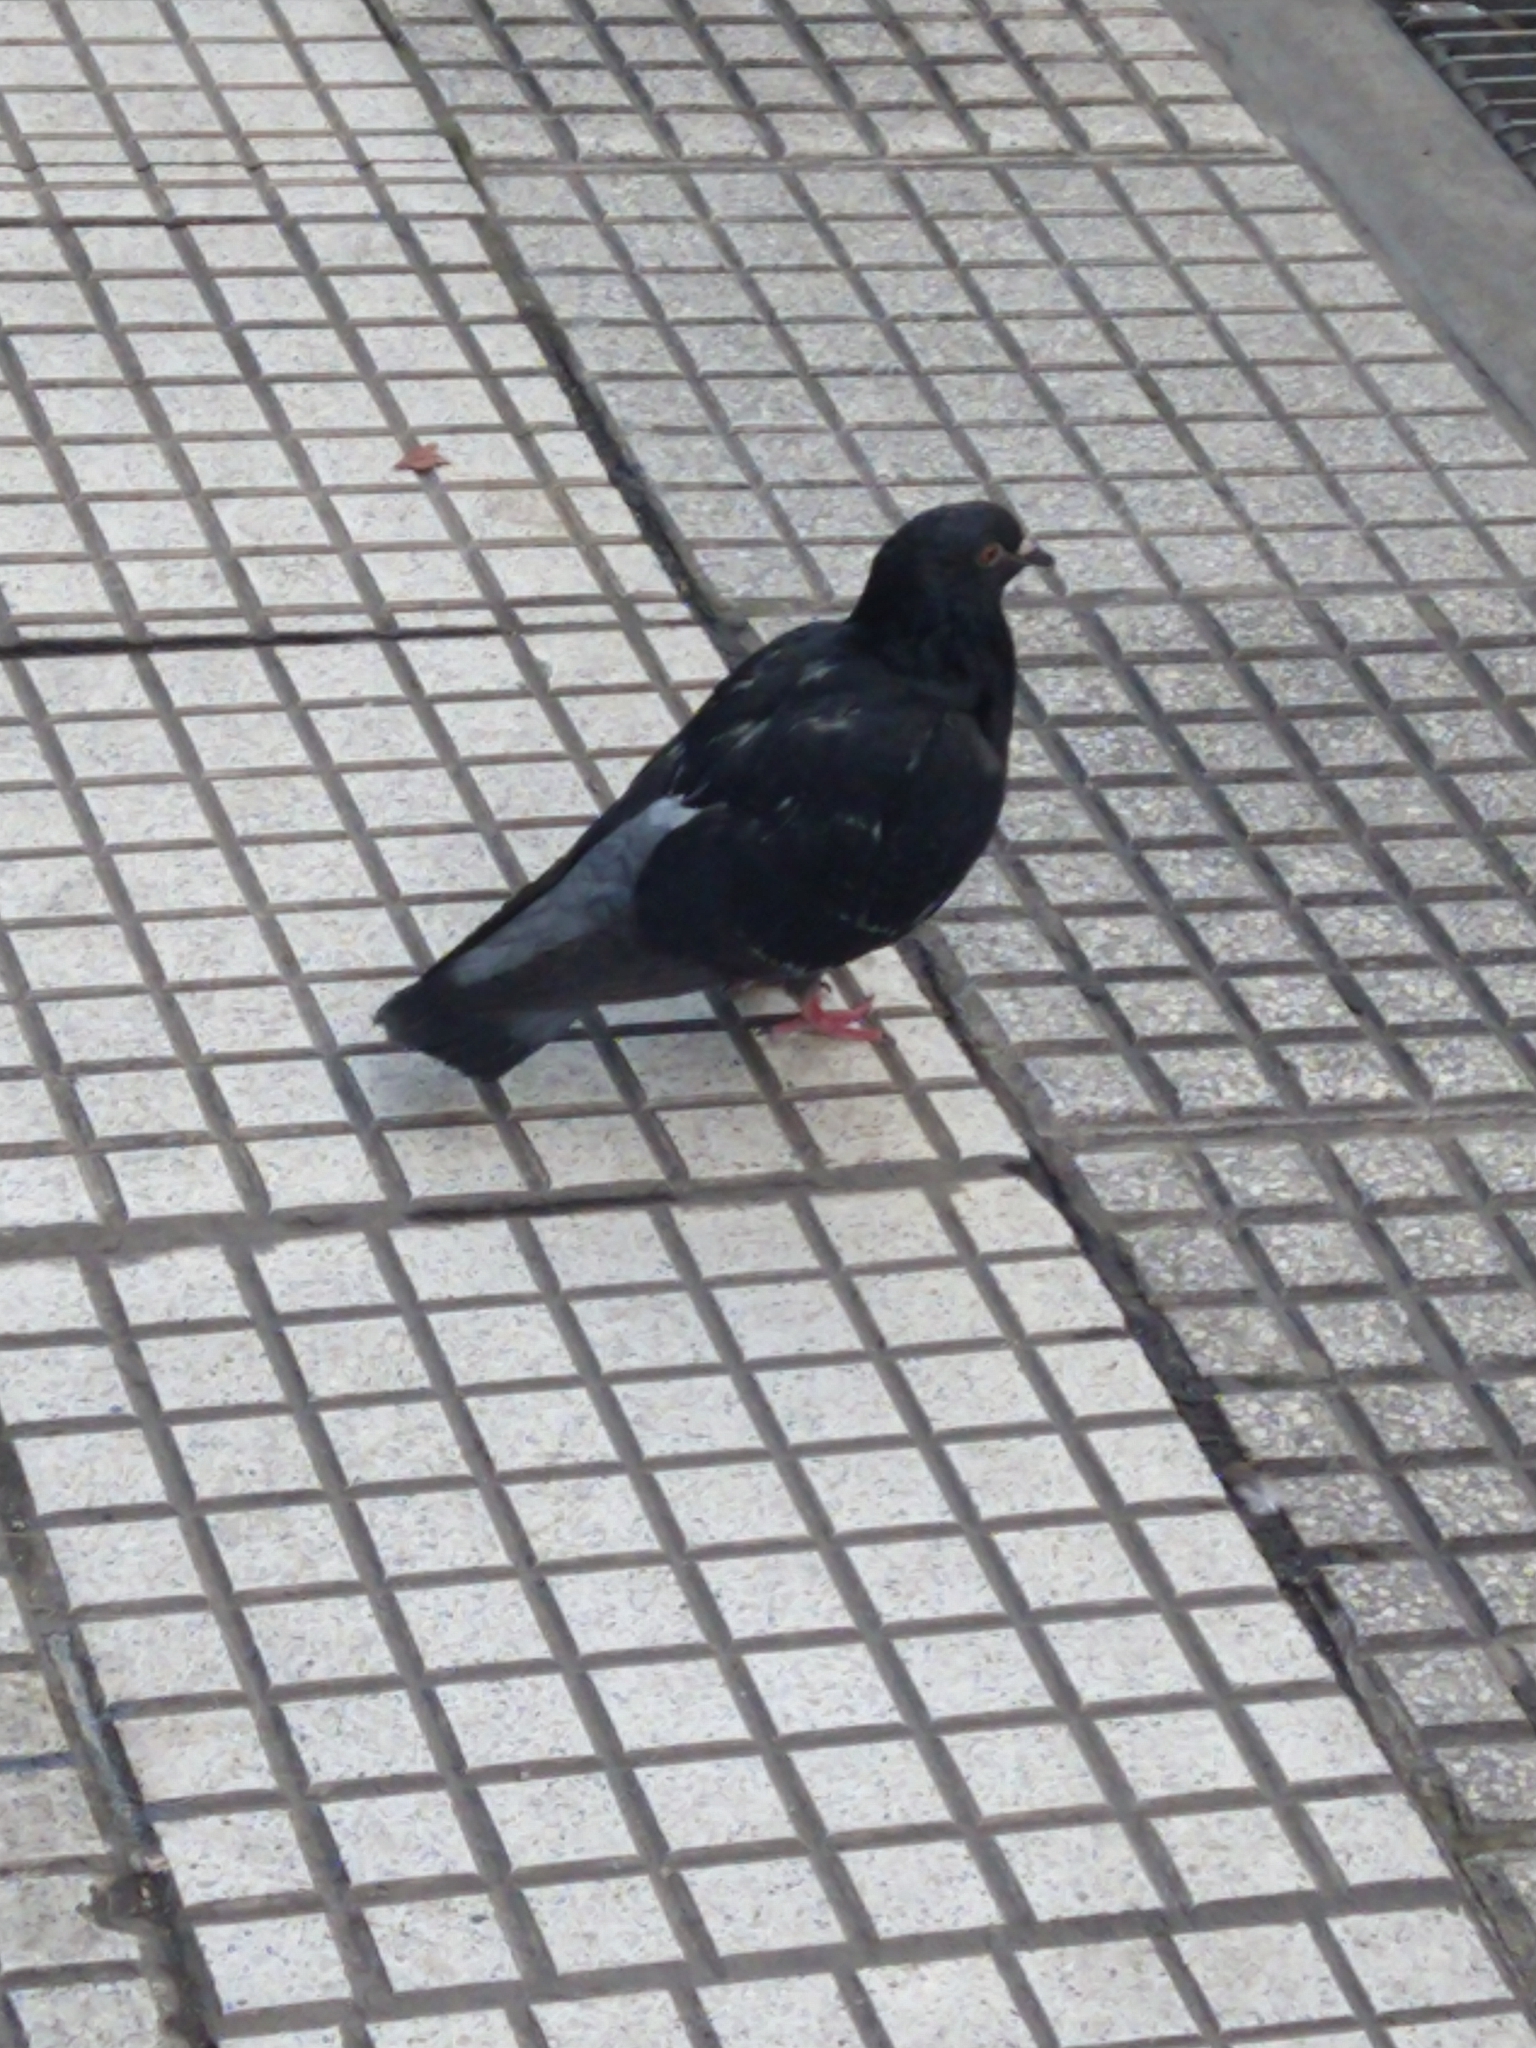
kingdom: Animalia
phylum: Chordata
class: Aves
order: Columbiformes
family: Columbidae
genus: Columba
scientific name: Columba livia
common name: Rock pigeon
